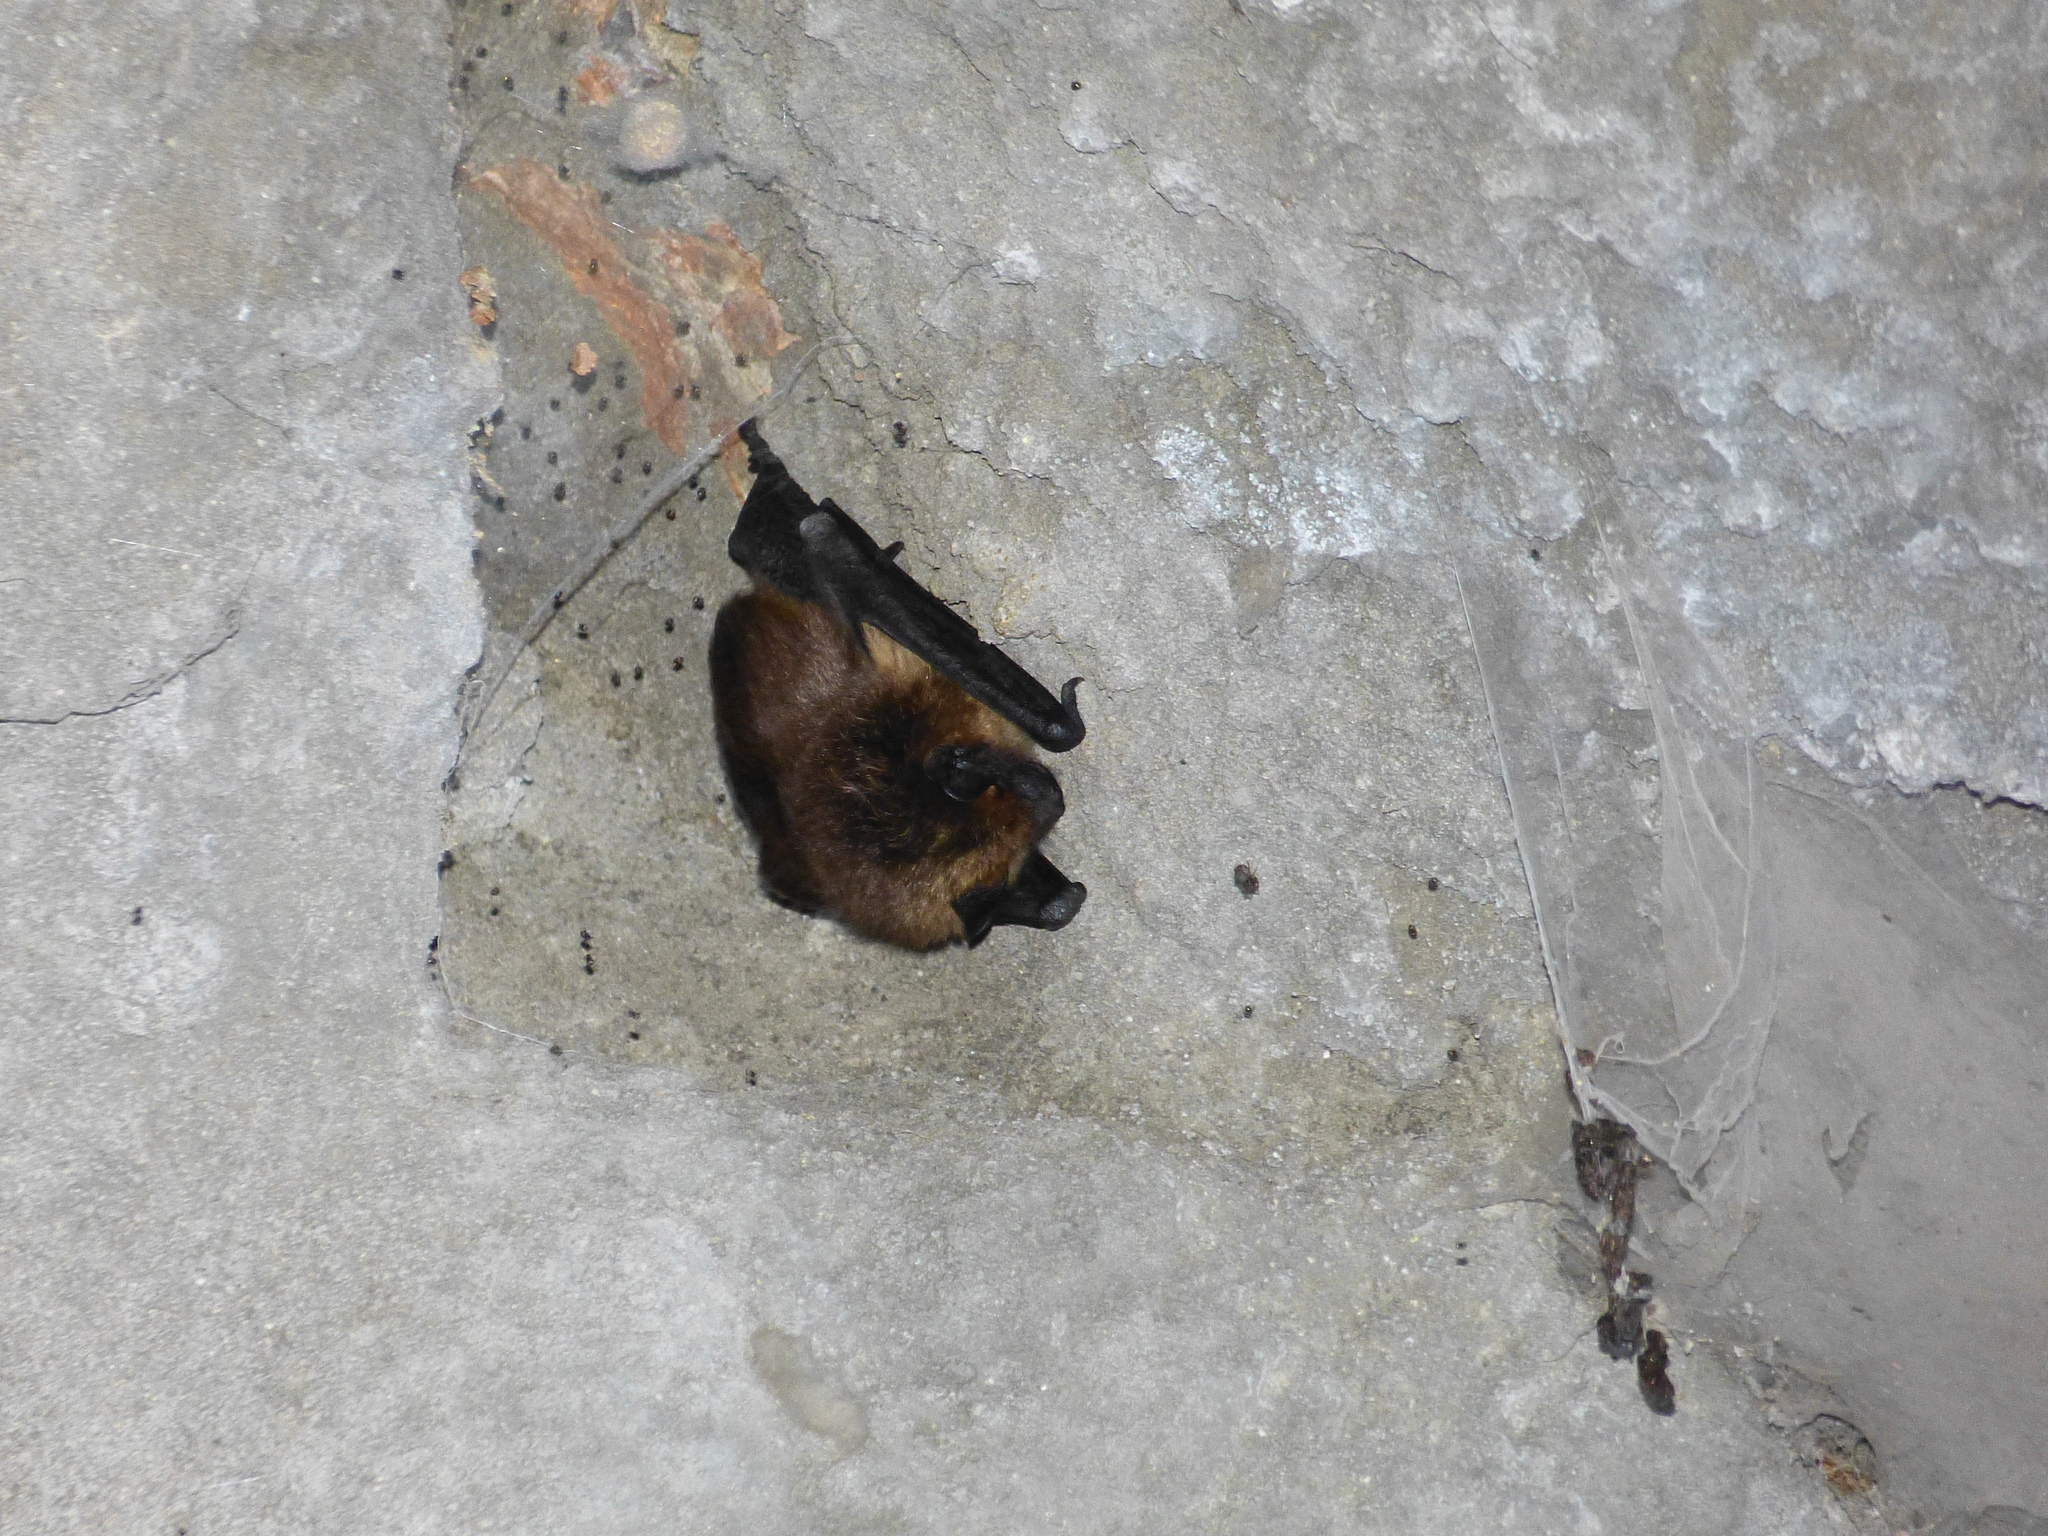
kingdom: Animalia
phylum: Chordata
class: Mammalia
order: Chiroptera
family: Vespertilionidae
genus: Eptesicus
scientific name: Eptesicus serotinus
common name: Serotine
